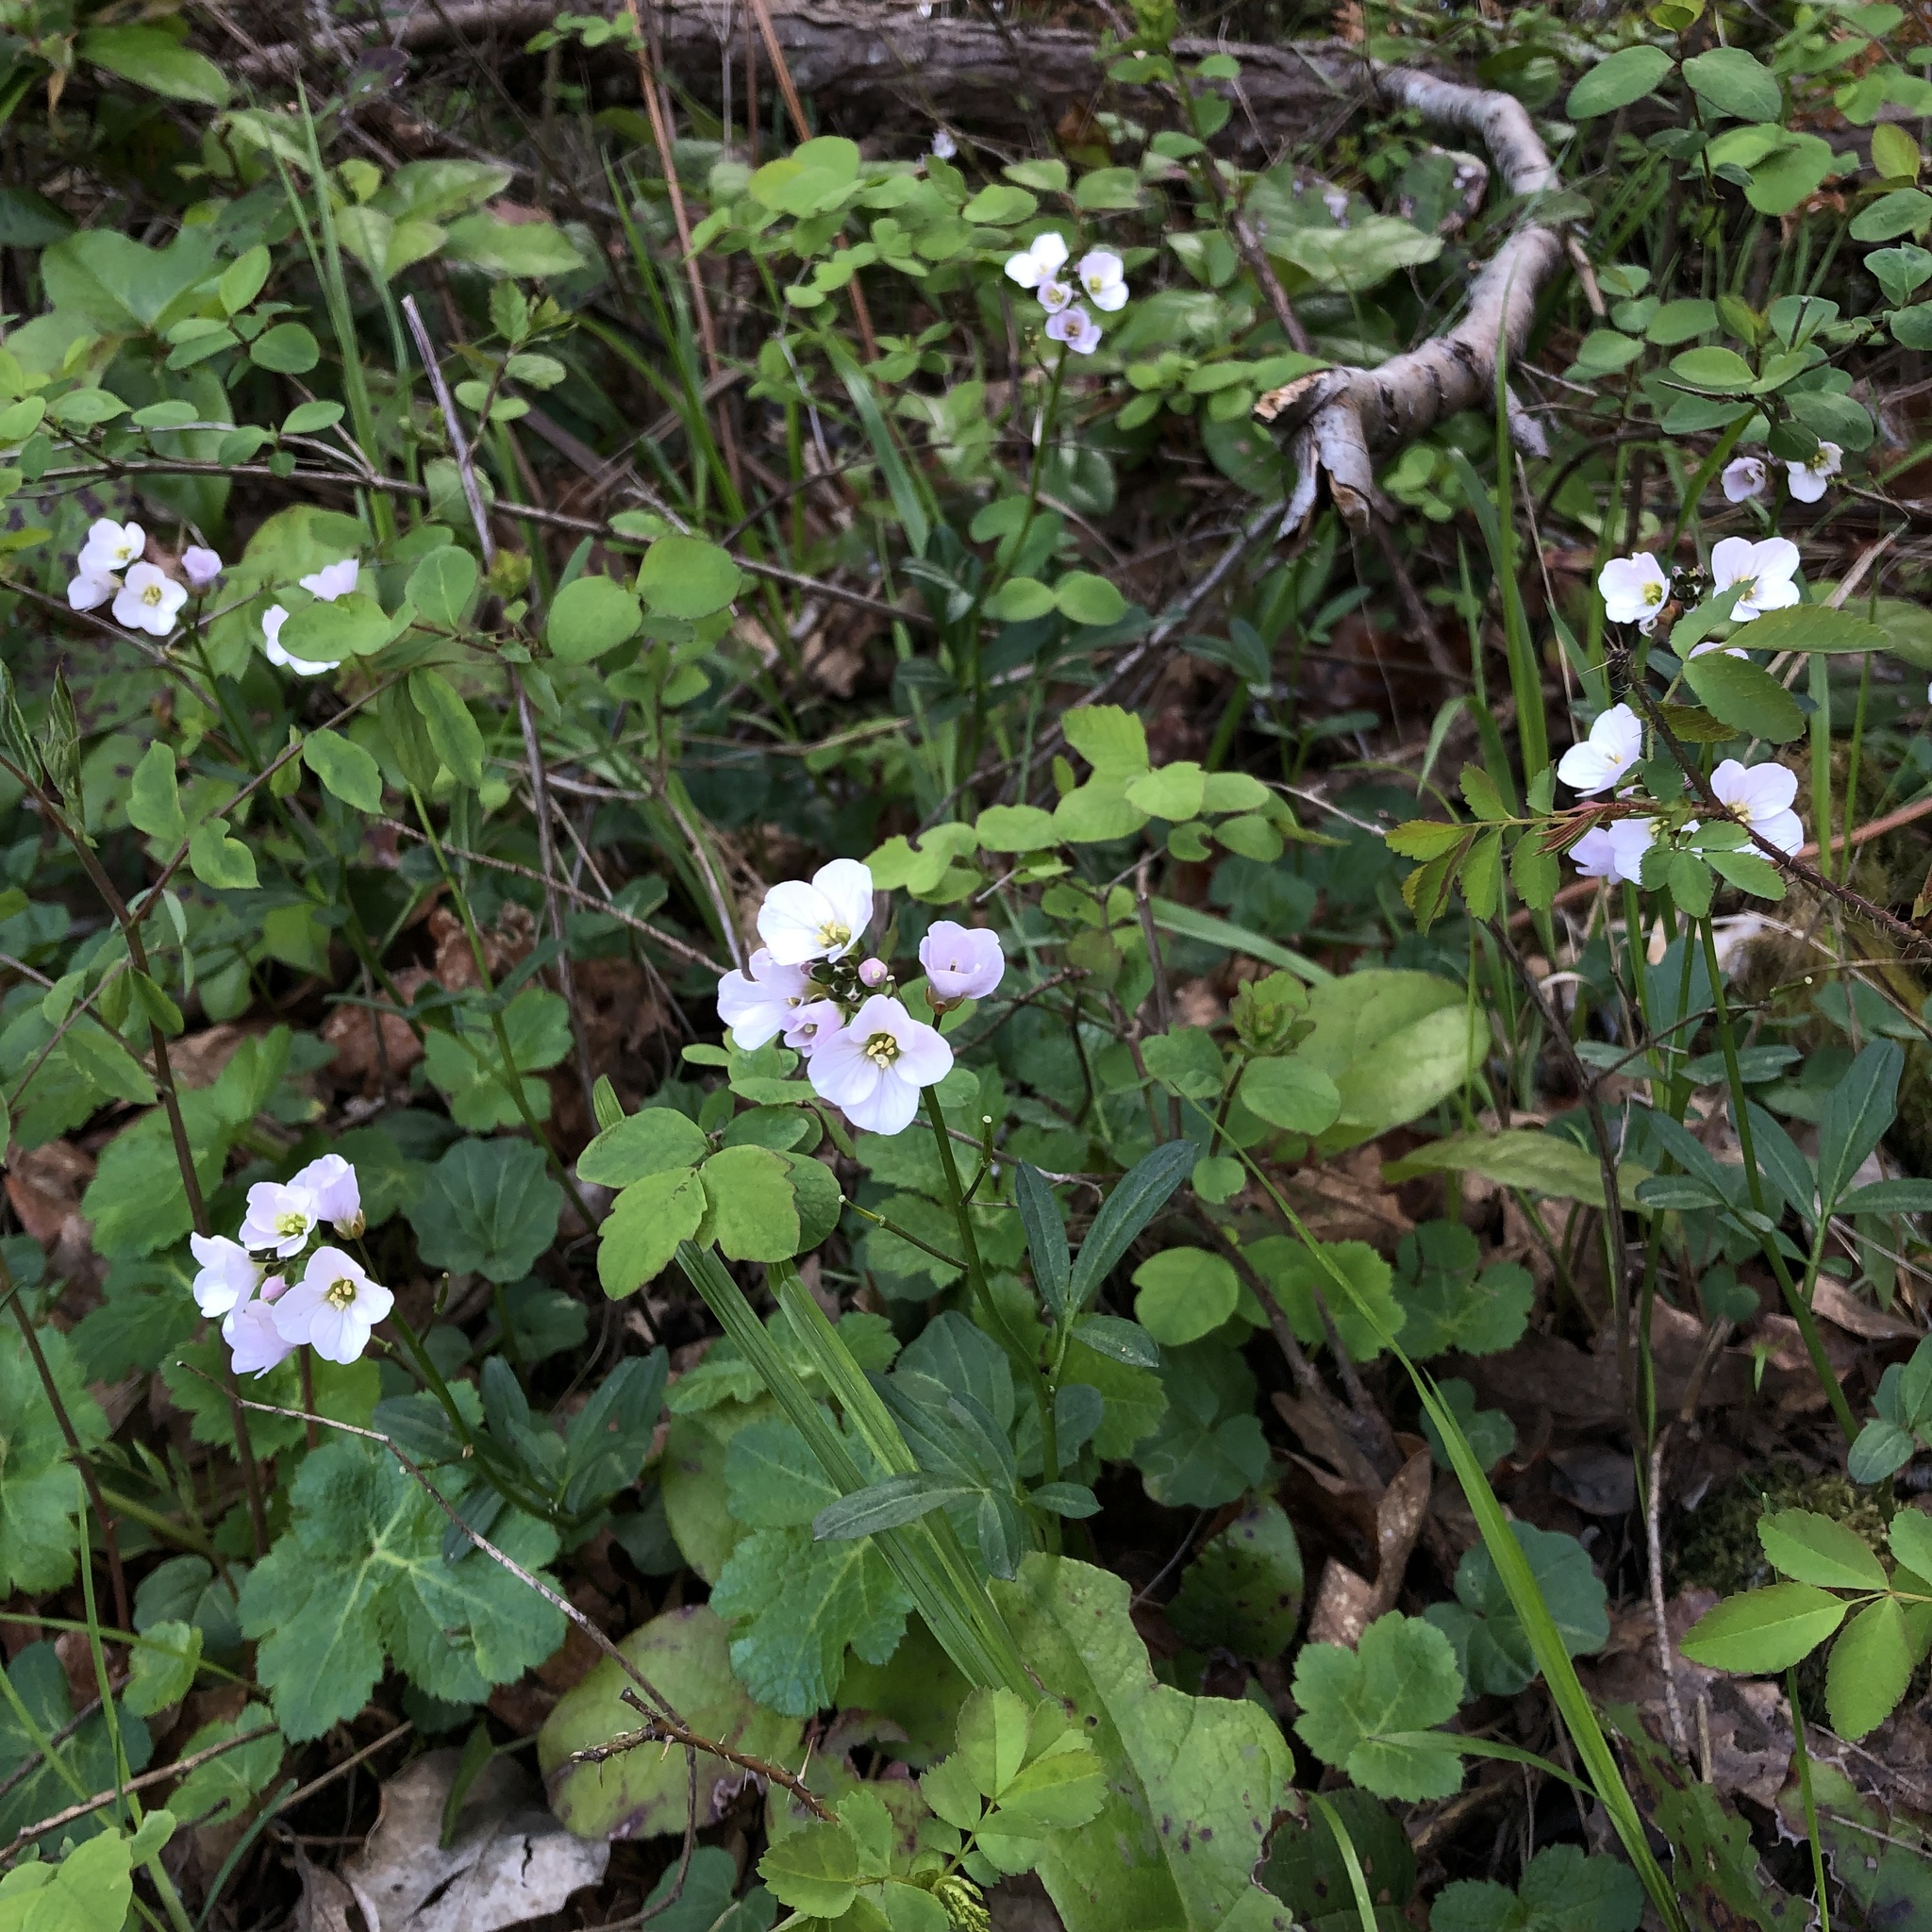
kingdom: Plantae
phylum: Tracheophyta
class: Magnoliopsida
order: Brassicales
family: Brassicaceae
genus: Cardamine
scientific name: Cardamine nuttallii
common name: Nuttall's toothwort
